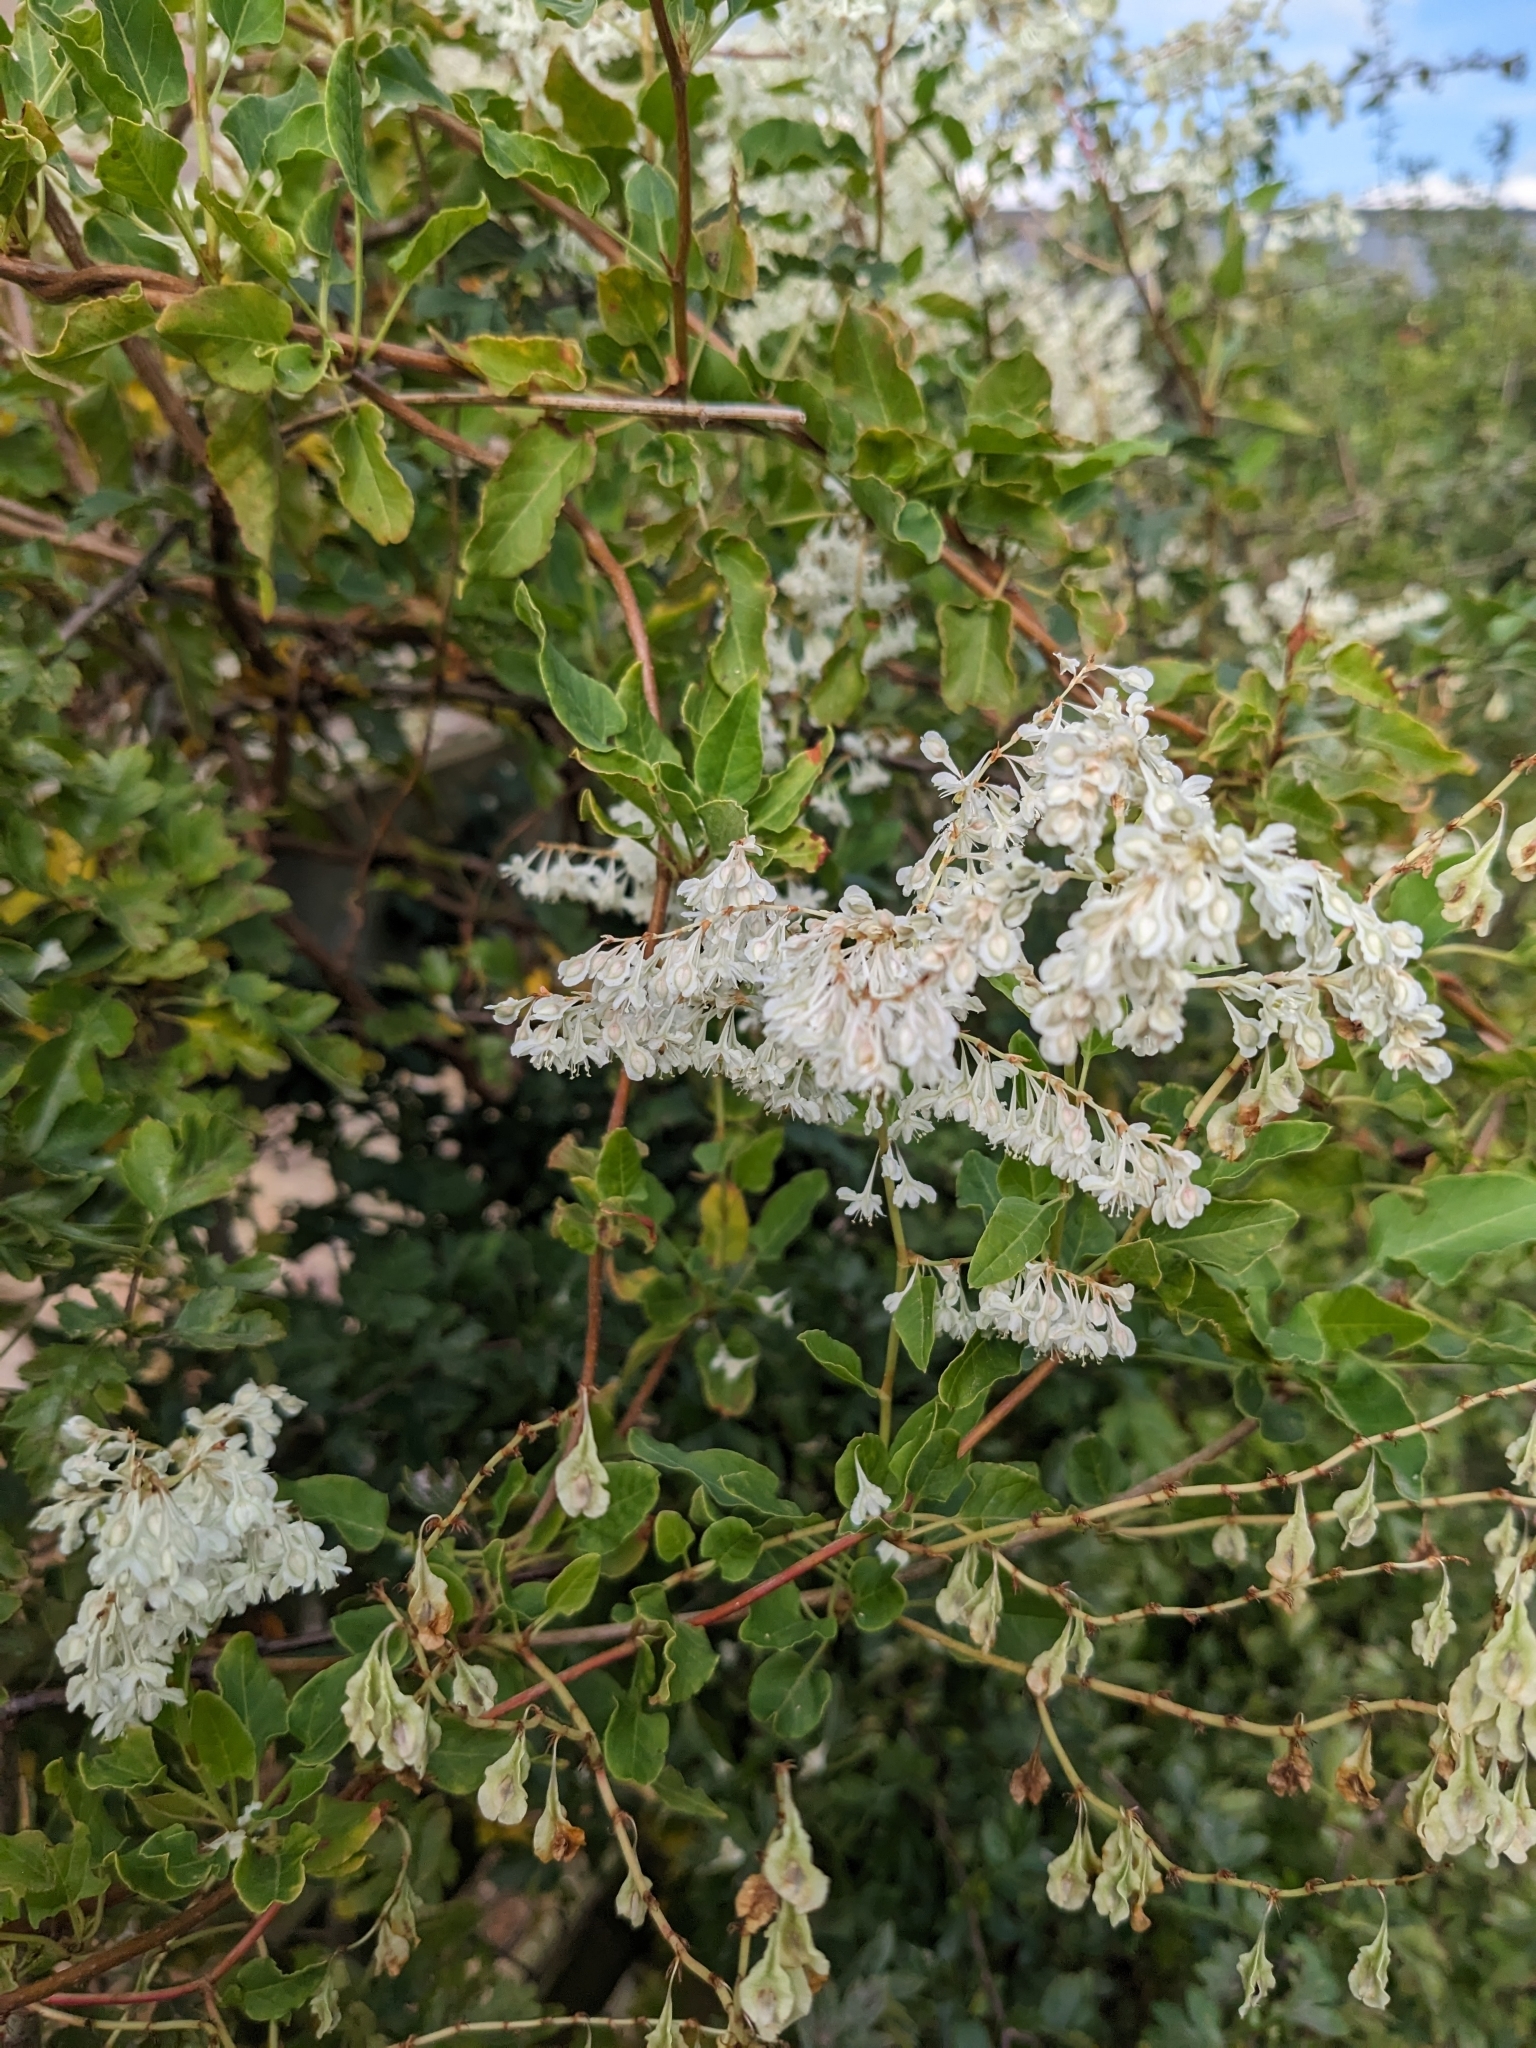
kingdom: Plantae
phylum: Tracheophyta
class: Magnoliopsida
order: Caryophyllales
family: Polygonaceae
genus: Fallopia
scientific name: Fallopia baldschuanica
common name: Russian-vine
